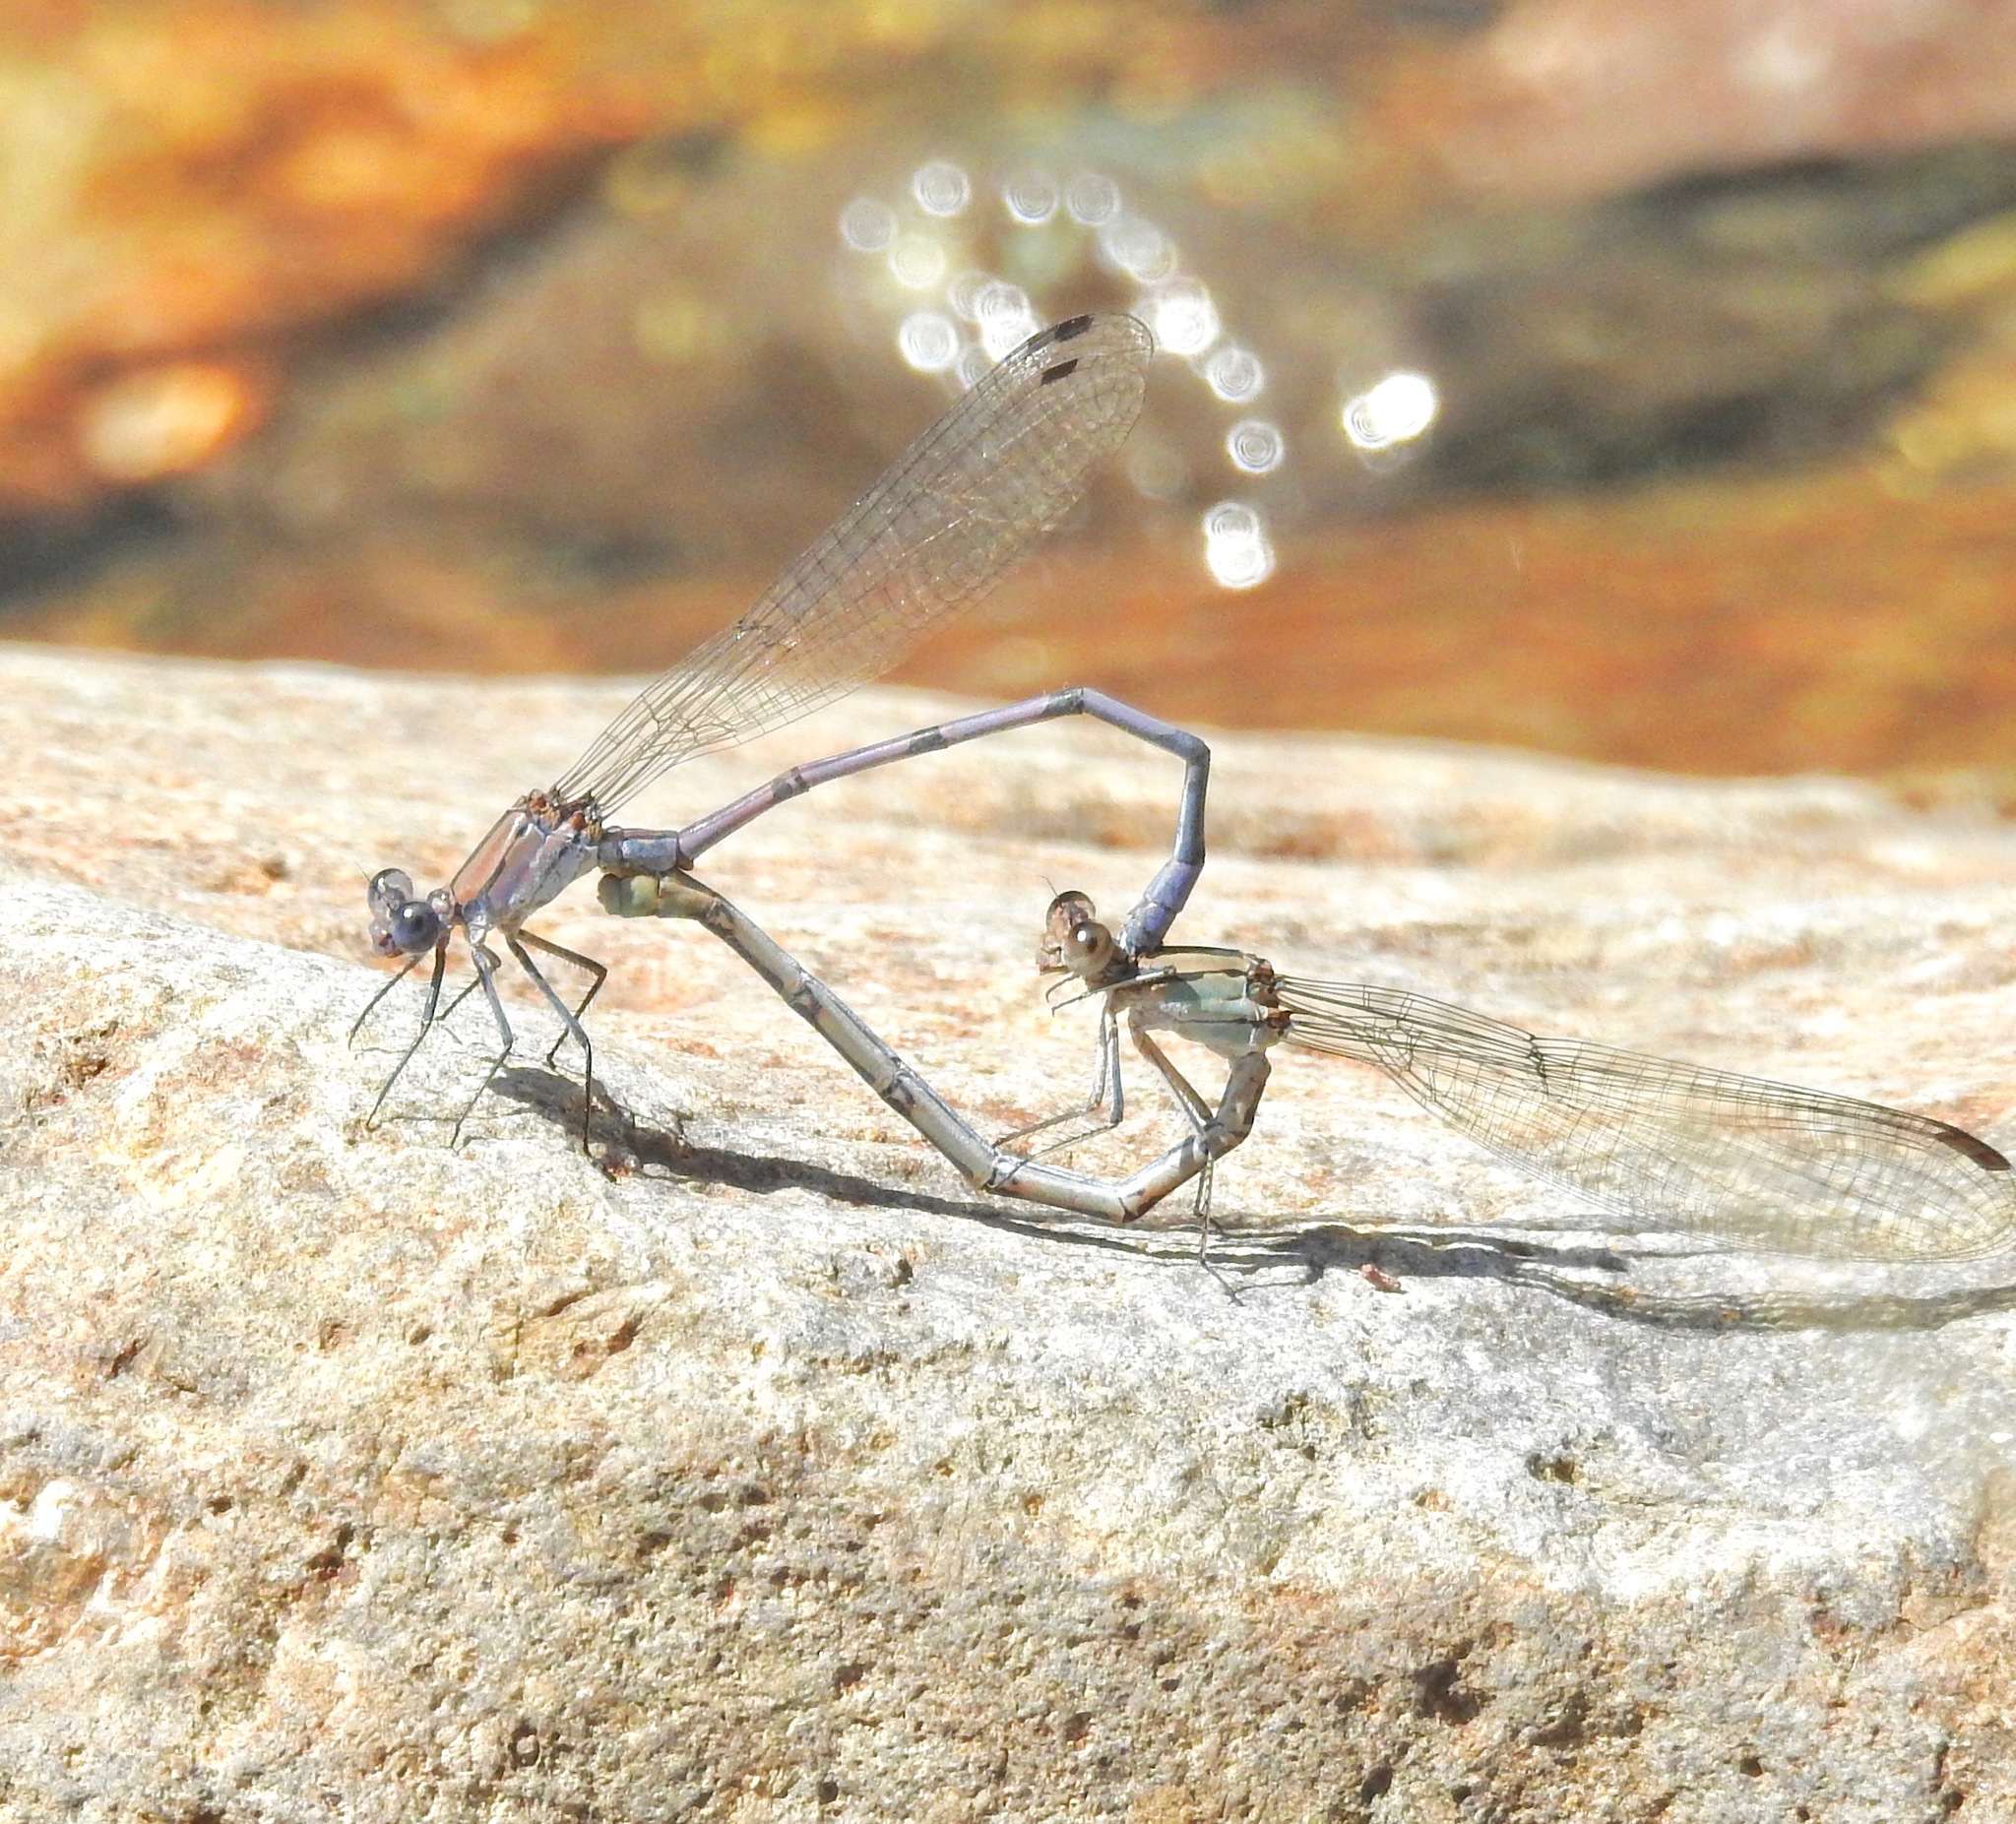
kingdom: Animalia
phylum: Arthropoda
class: Insecta
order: Odonata
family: Coenagrionidae
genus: Argia
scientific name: Argia tonto
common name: Tonto dancer
